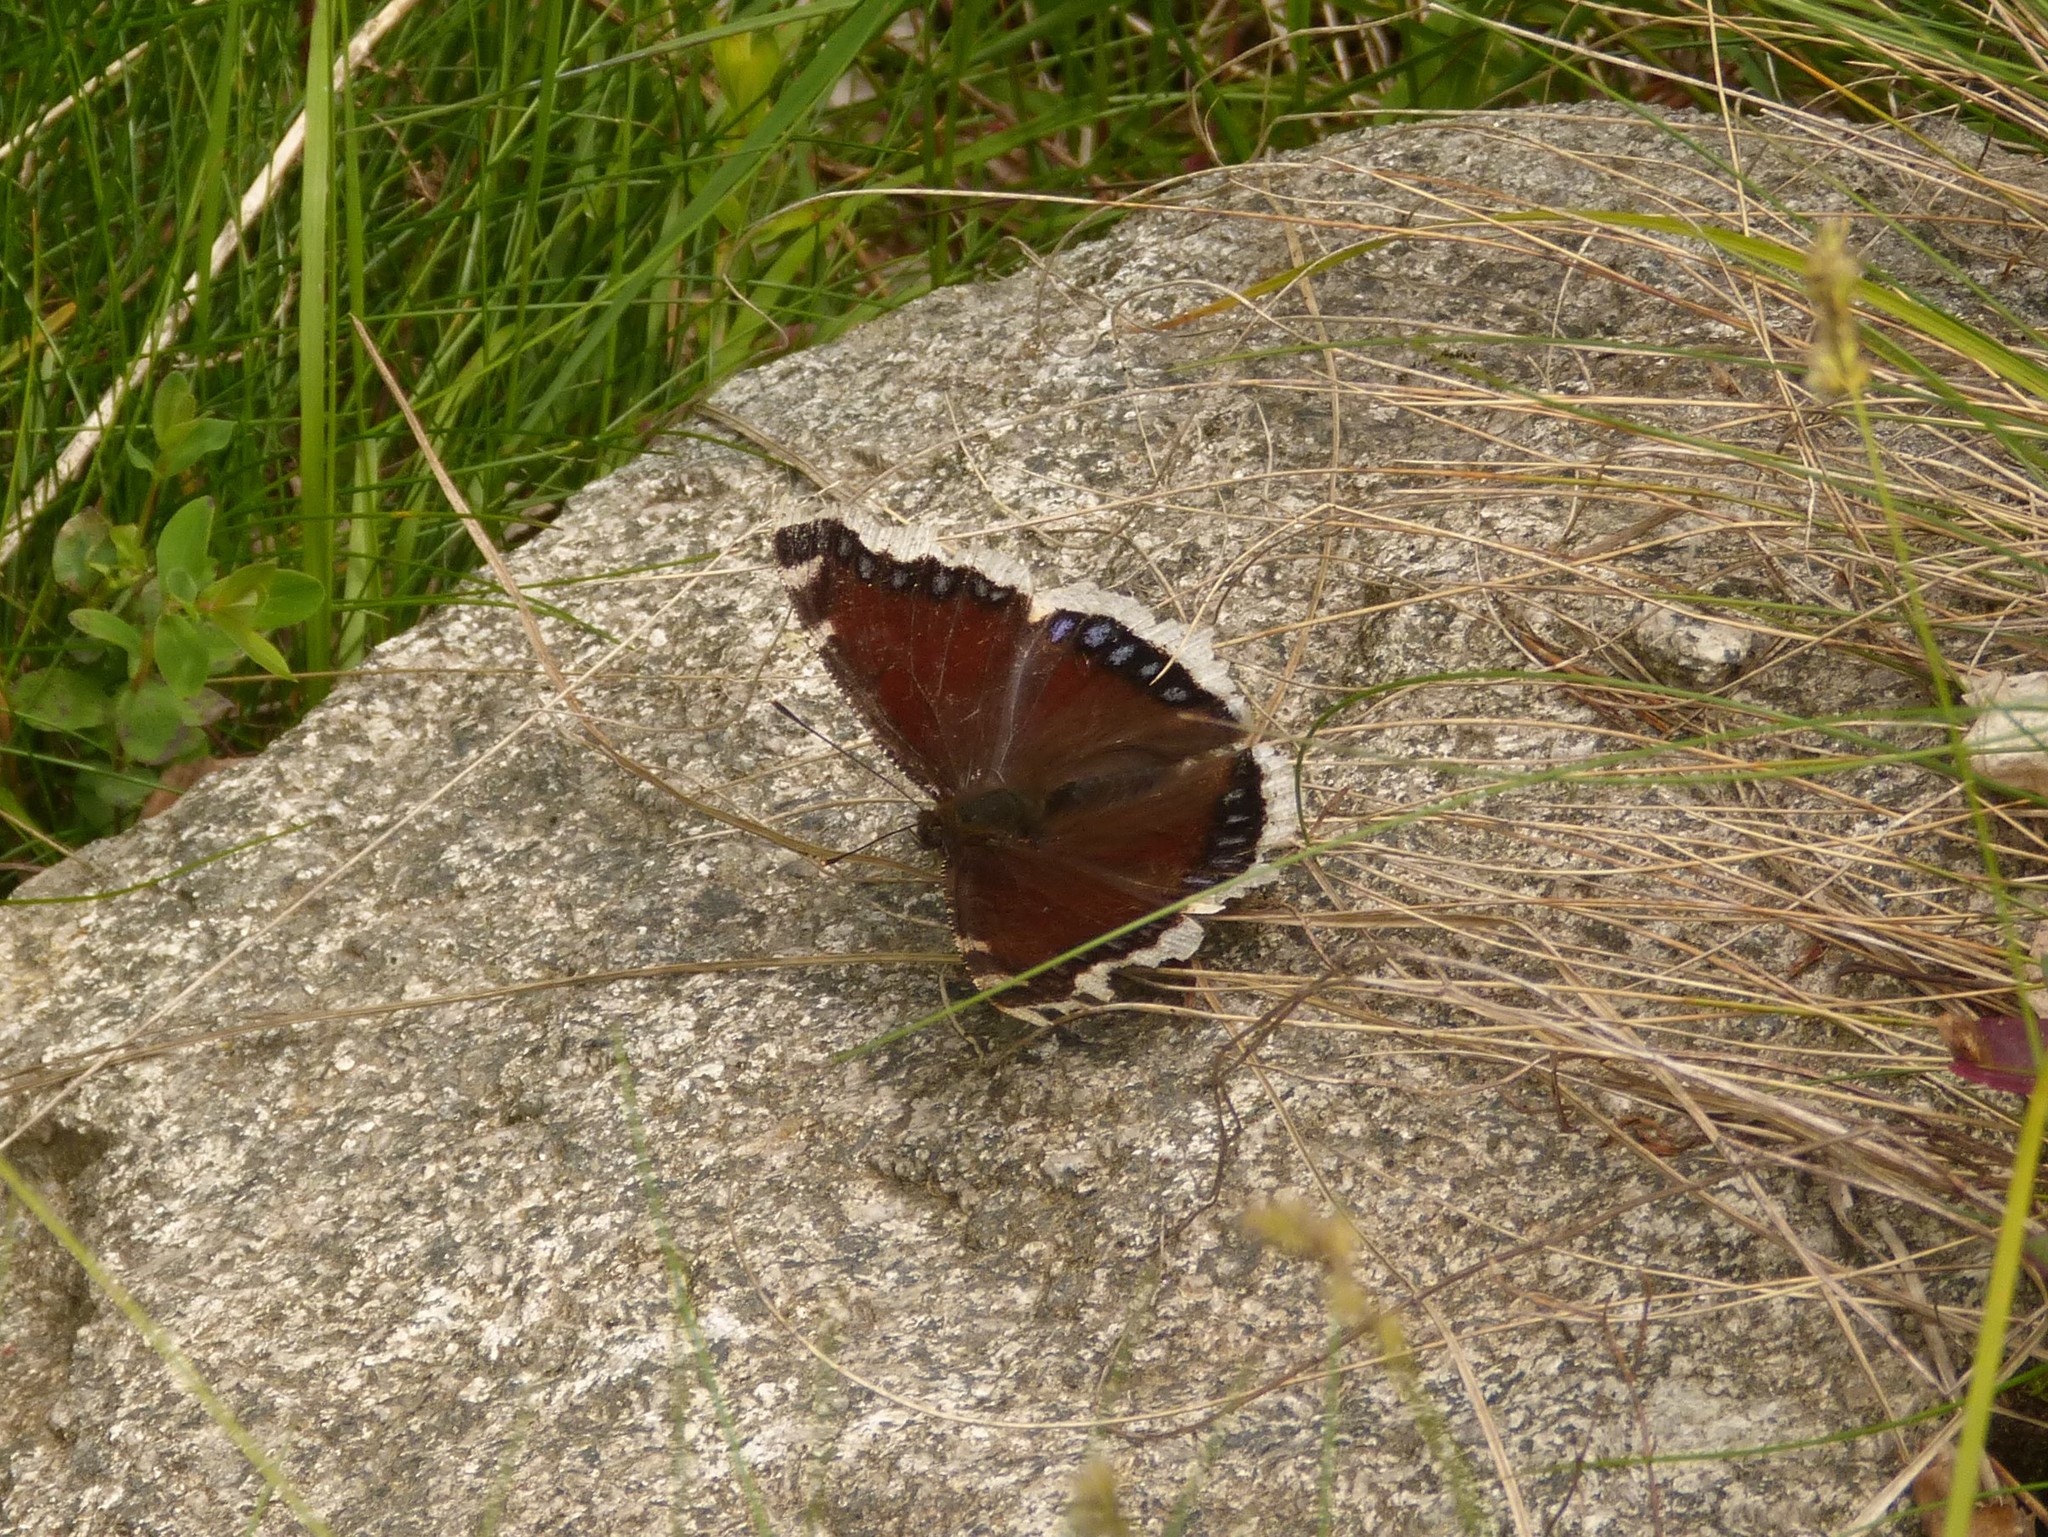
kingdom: Animalia
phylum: Arthropoda
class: Insecta
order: Lepidoptera
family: Nymphalidae
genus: Nymphalis
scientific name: Nymphalis antiopa
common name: Camberwell beauty
